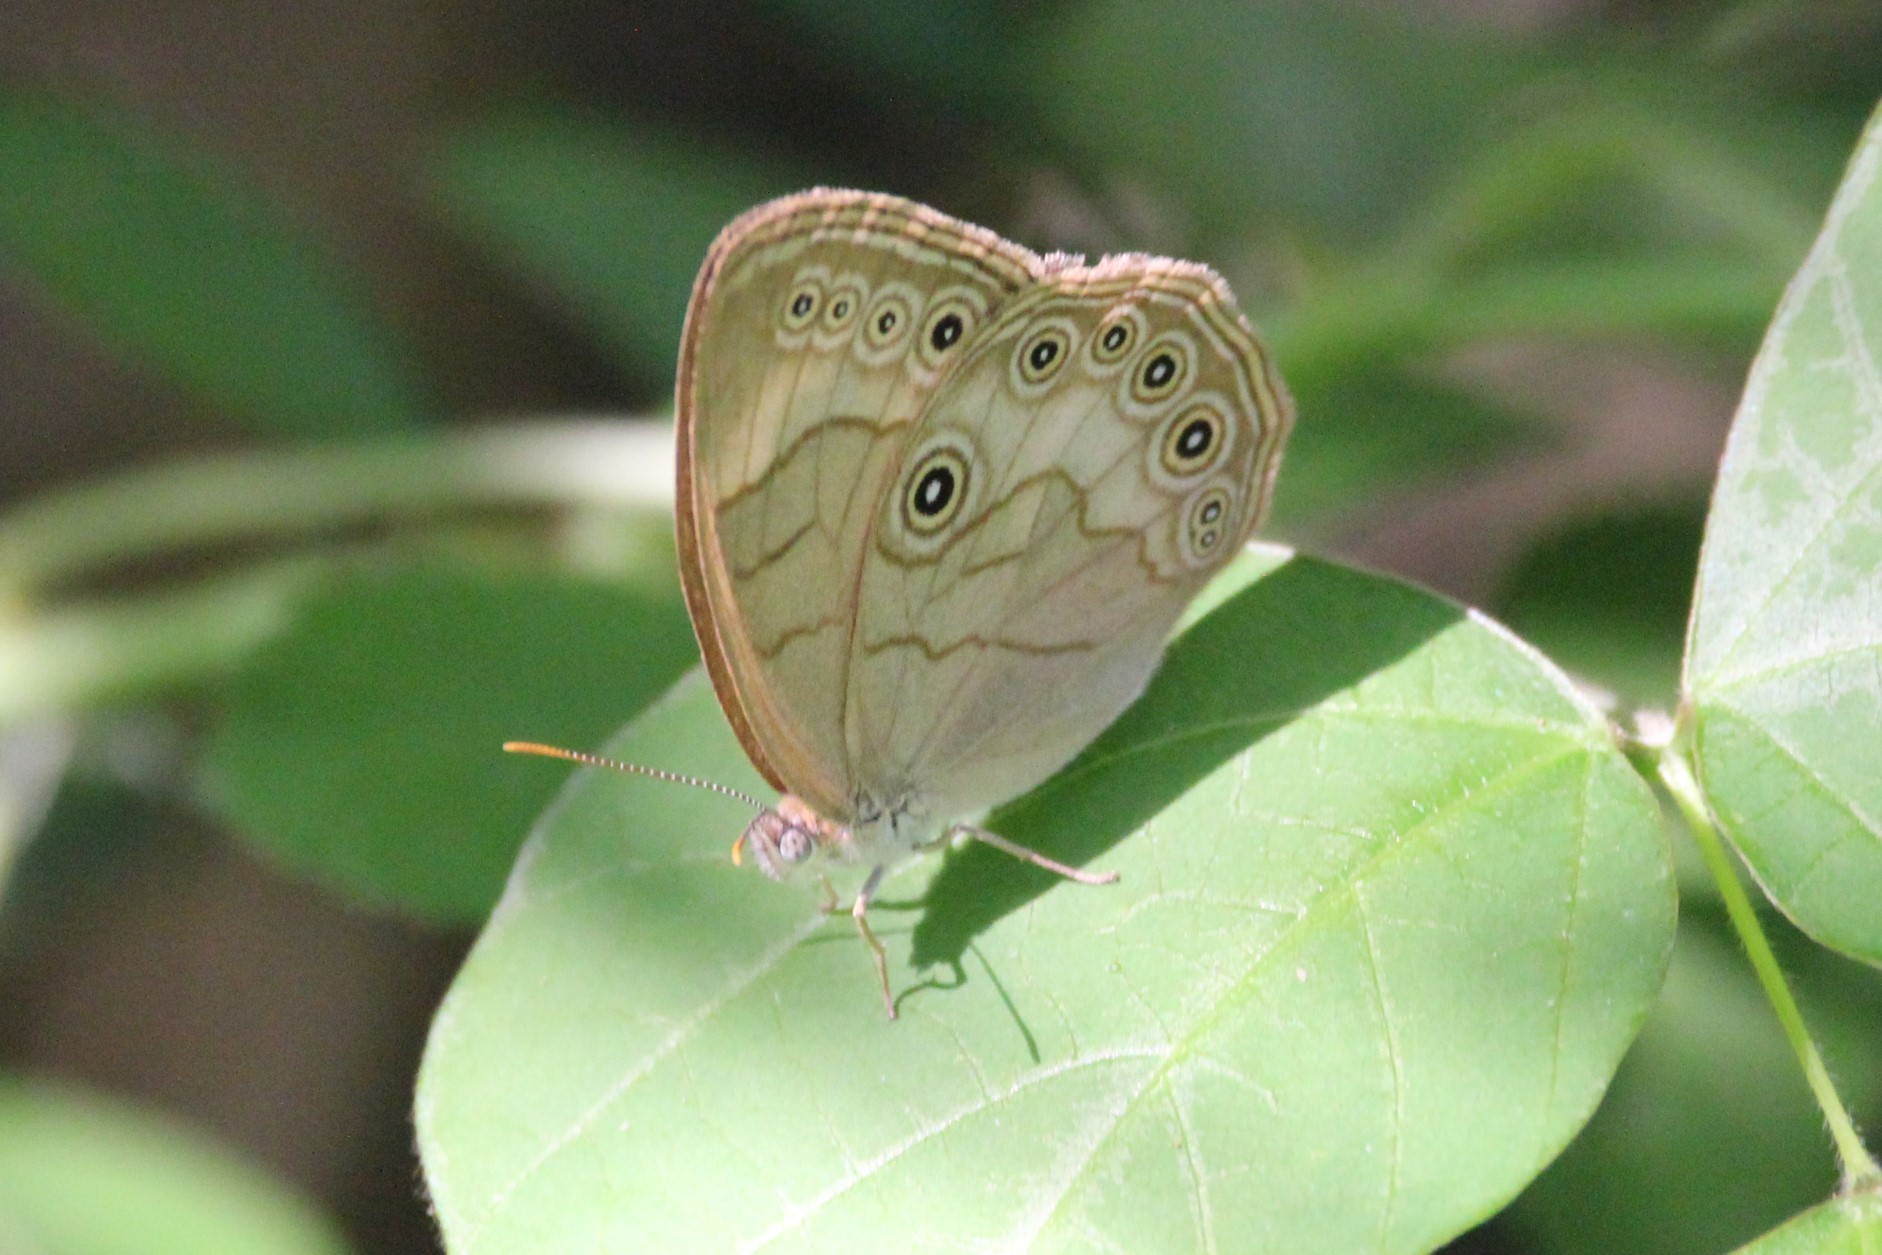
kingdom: Animalia
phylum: Arthropoda
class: Insecta
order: Lepidoptera
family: Nymphalidae
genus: Lethe
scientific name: Lethe eurydice
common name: Eyed brown
